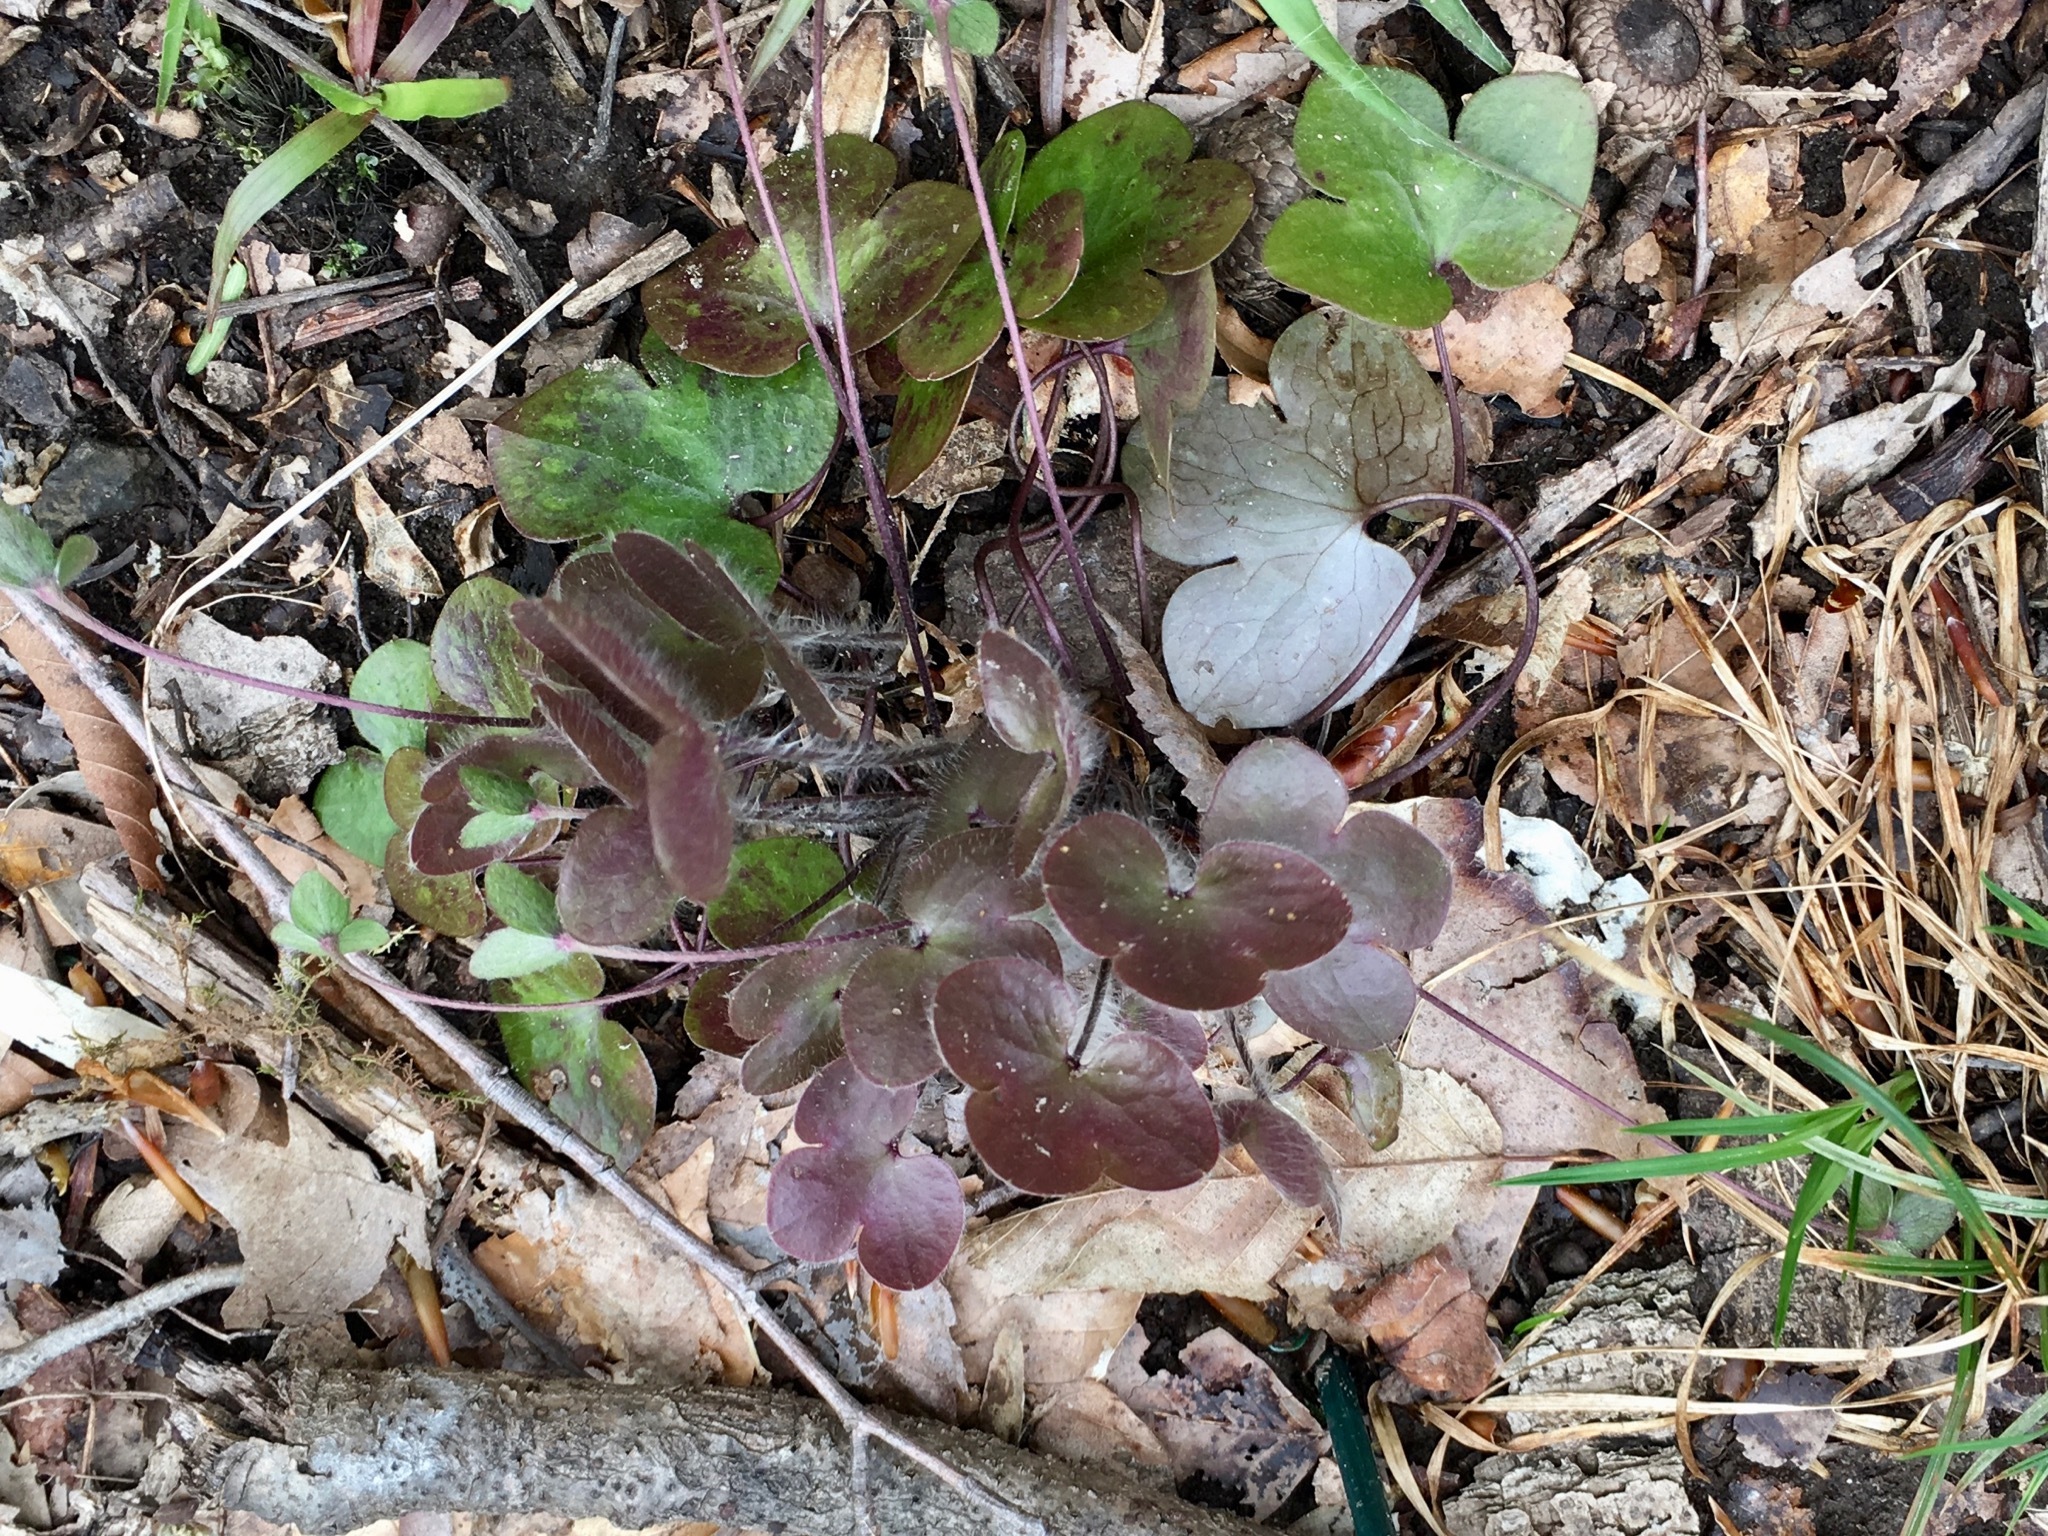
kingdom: Plantae
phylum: Tracheophyta
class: Magnoliopsida
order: Ranunculales
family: Ranunculaceae
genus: Hepatica
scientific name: Hepatica americana
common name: American hepatica
